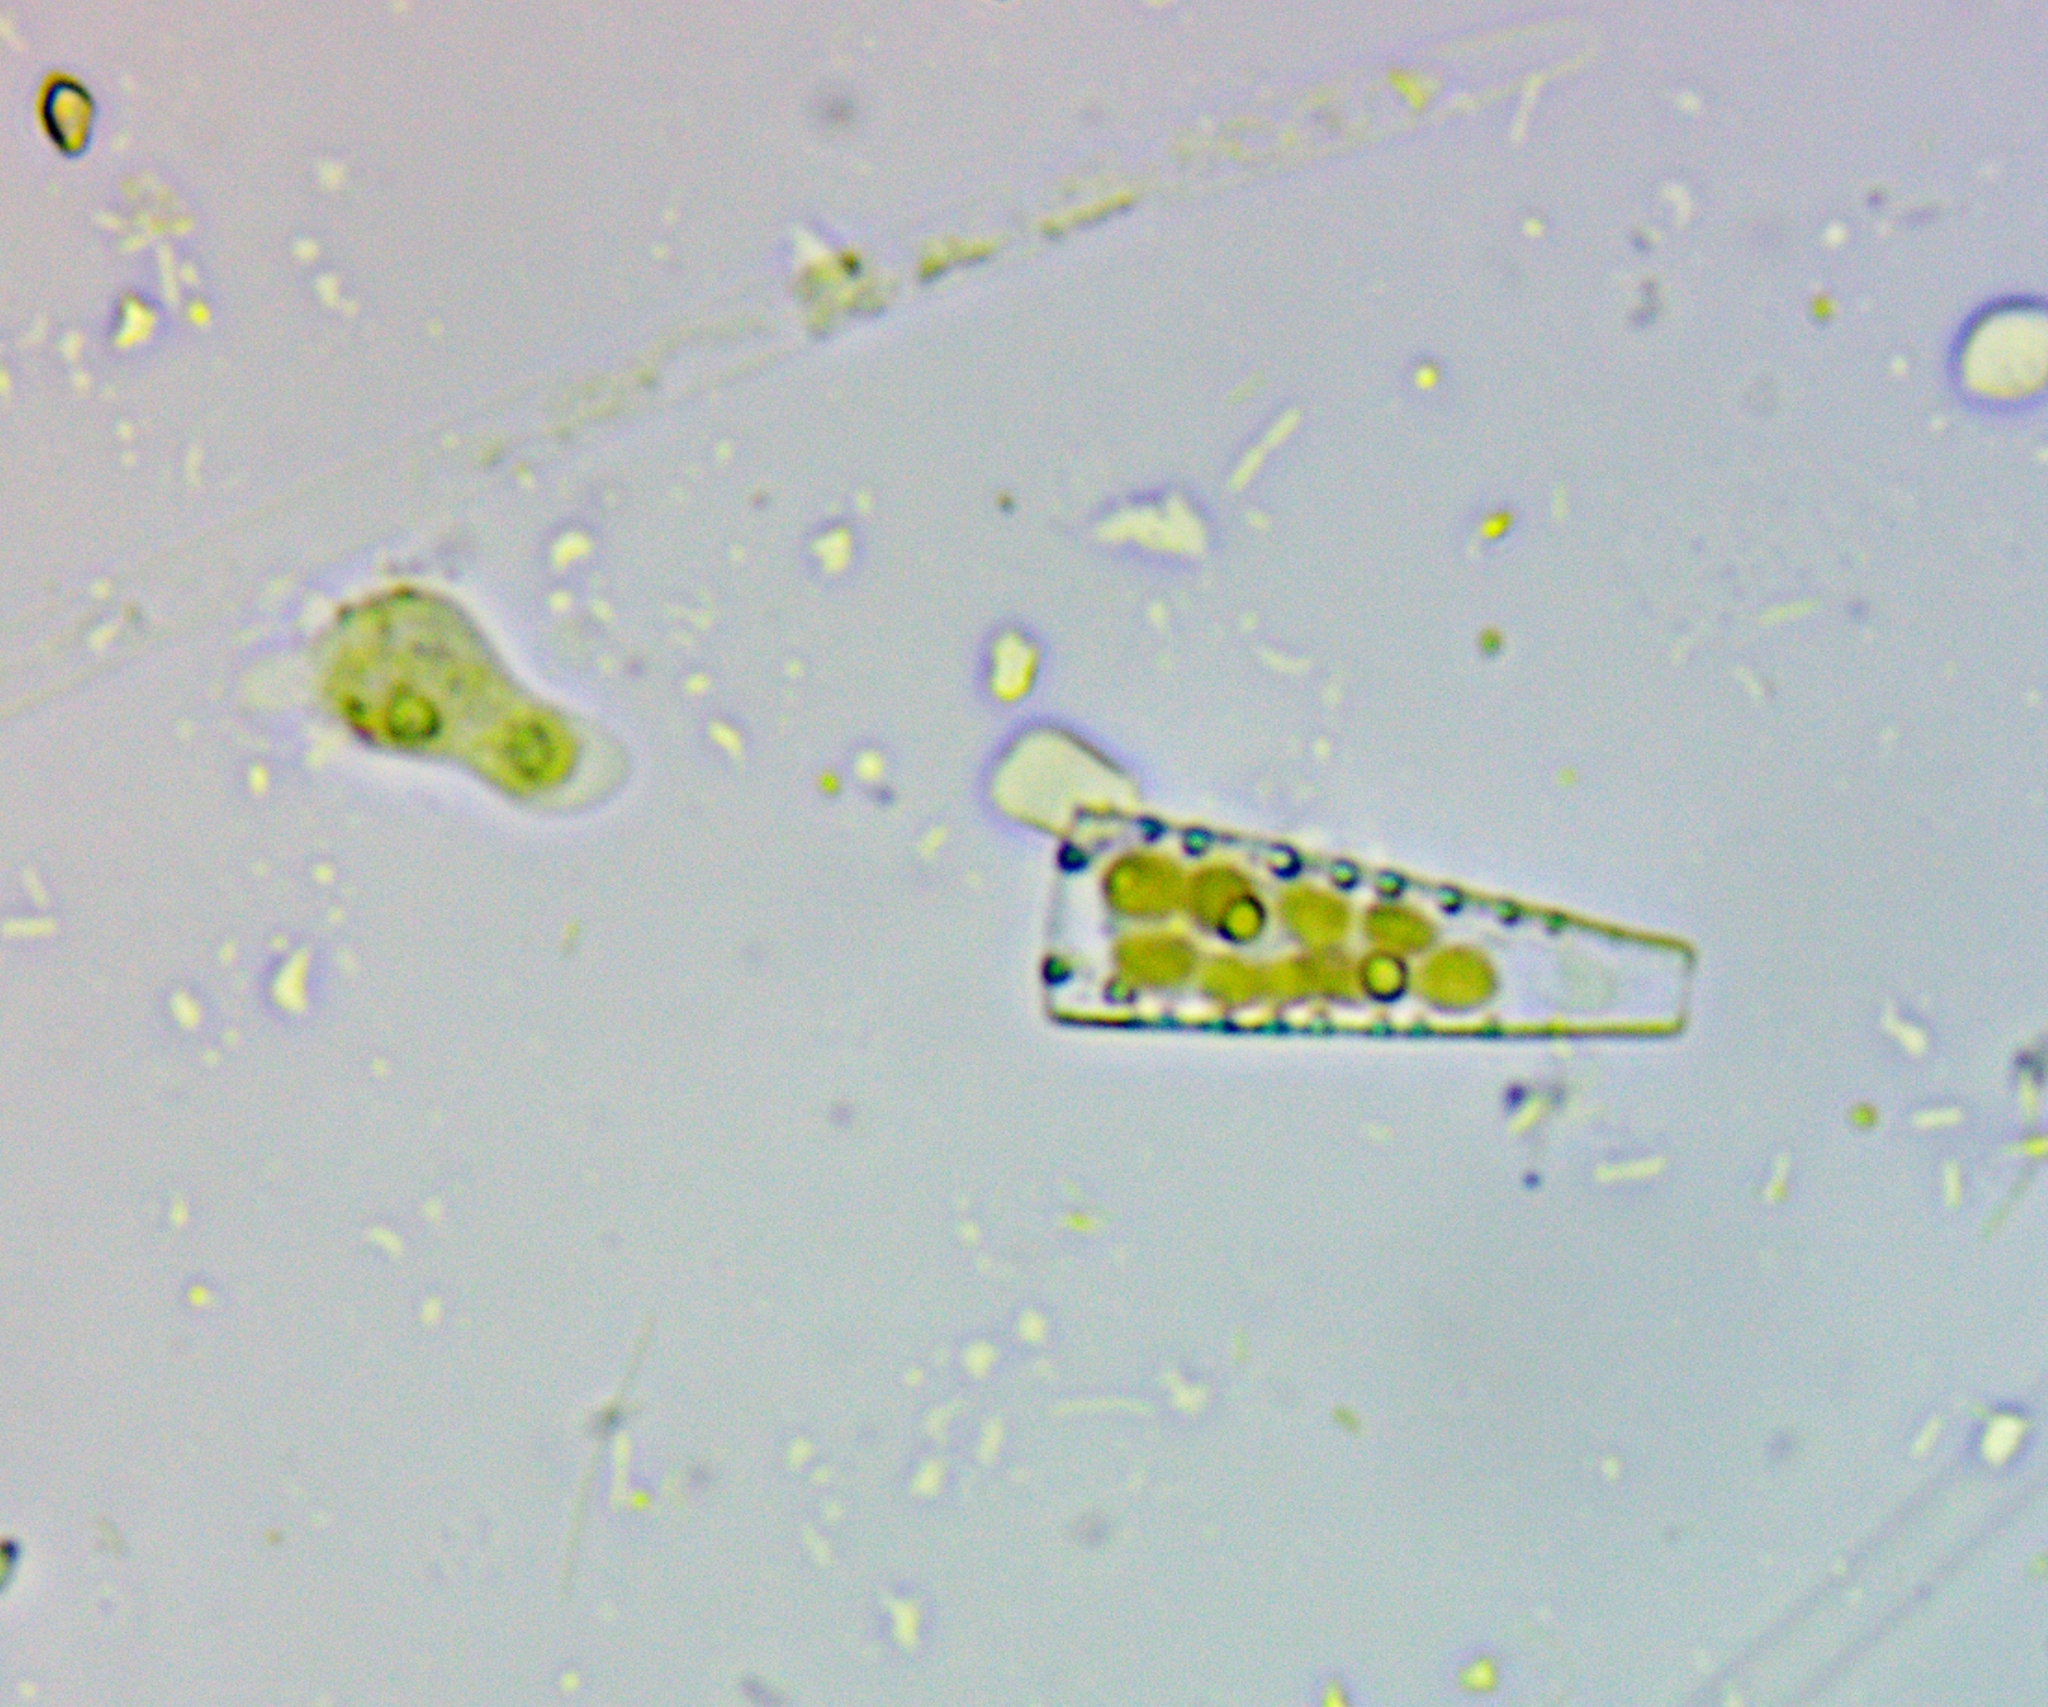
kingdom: Chromista
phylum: Ochrophyta
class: Bacillariophyceae
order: Fragilariales
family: Fragilariaceae
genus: Meridion
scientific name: Meridion circulare
